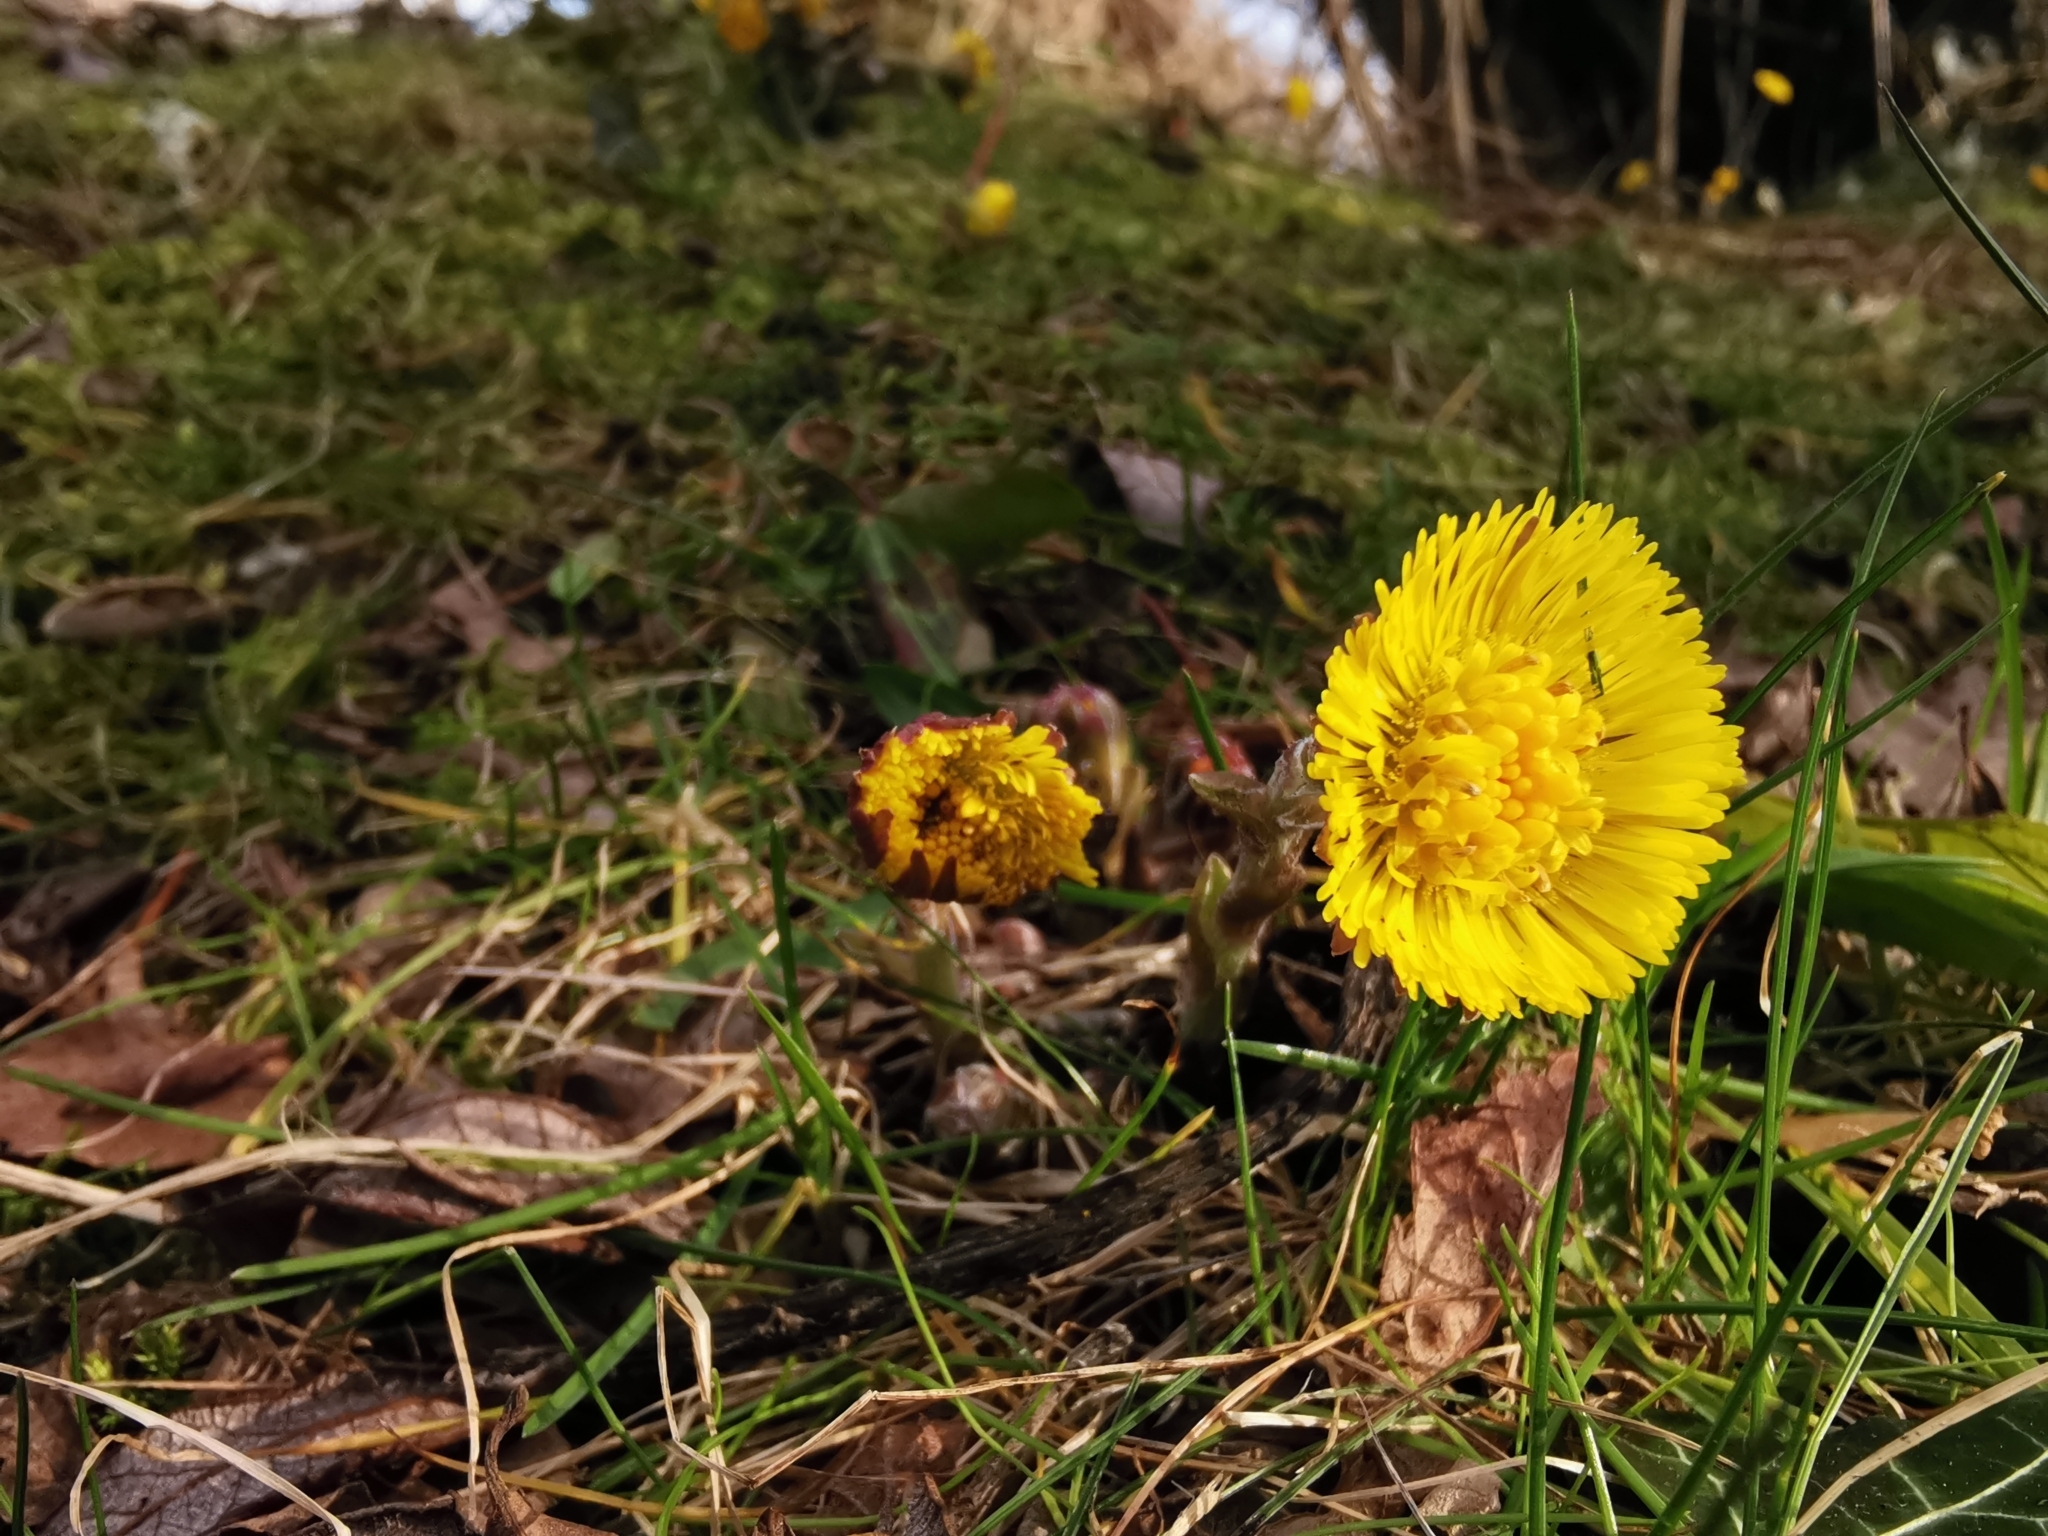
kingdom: Plantae
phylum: Tracheophyta
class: Magnoliopsida
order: Asterales
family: Asteraceae
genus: Tussilago
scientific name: Tussilago farfara
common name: Coltsfoot
